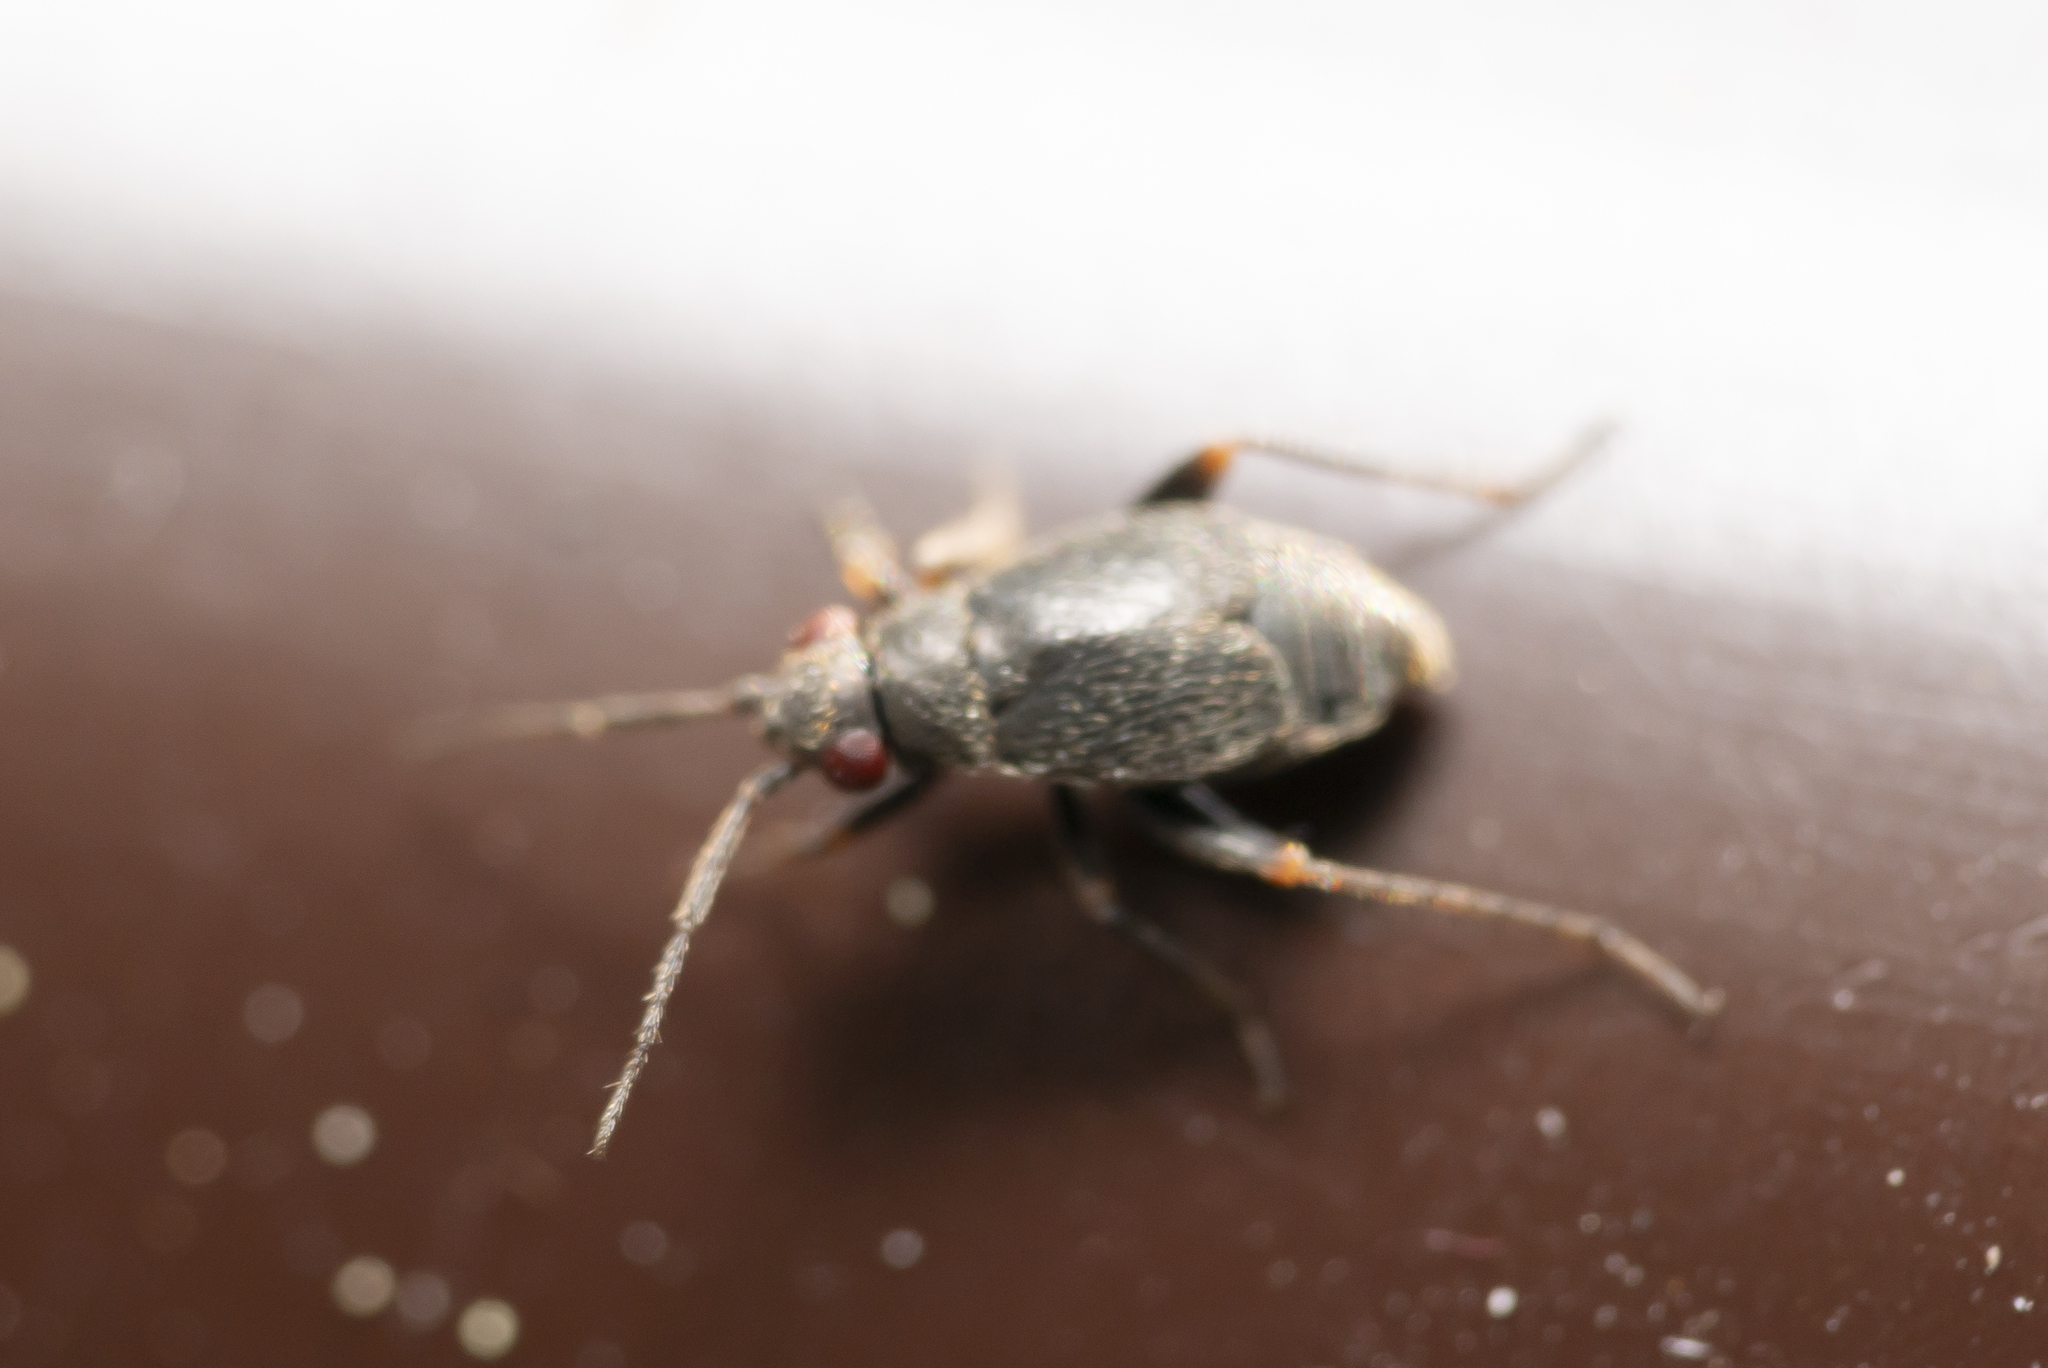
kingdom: Animalia
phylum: Arthropoda
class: Insecta
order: Hemiptera
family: Miridae
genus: Chlamydatus
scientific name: Chlamydatus evanescens
